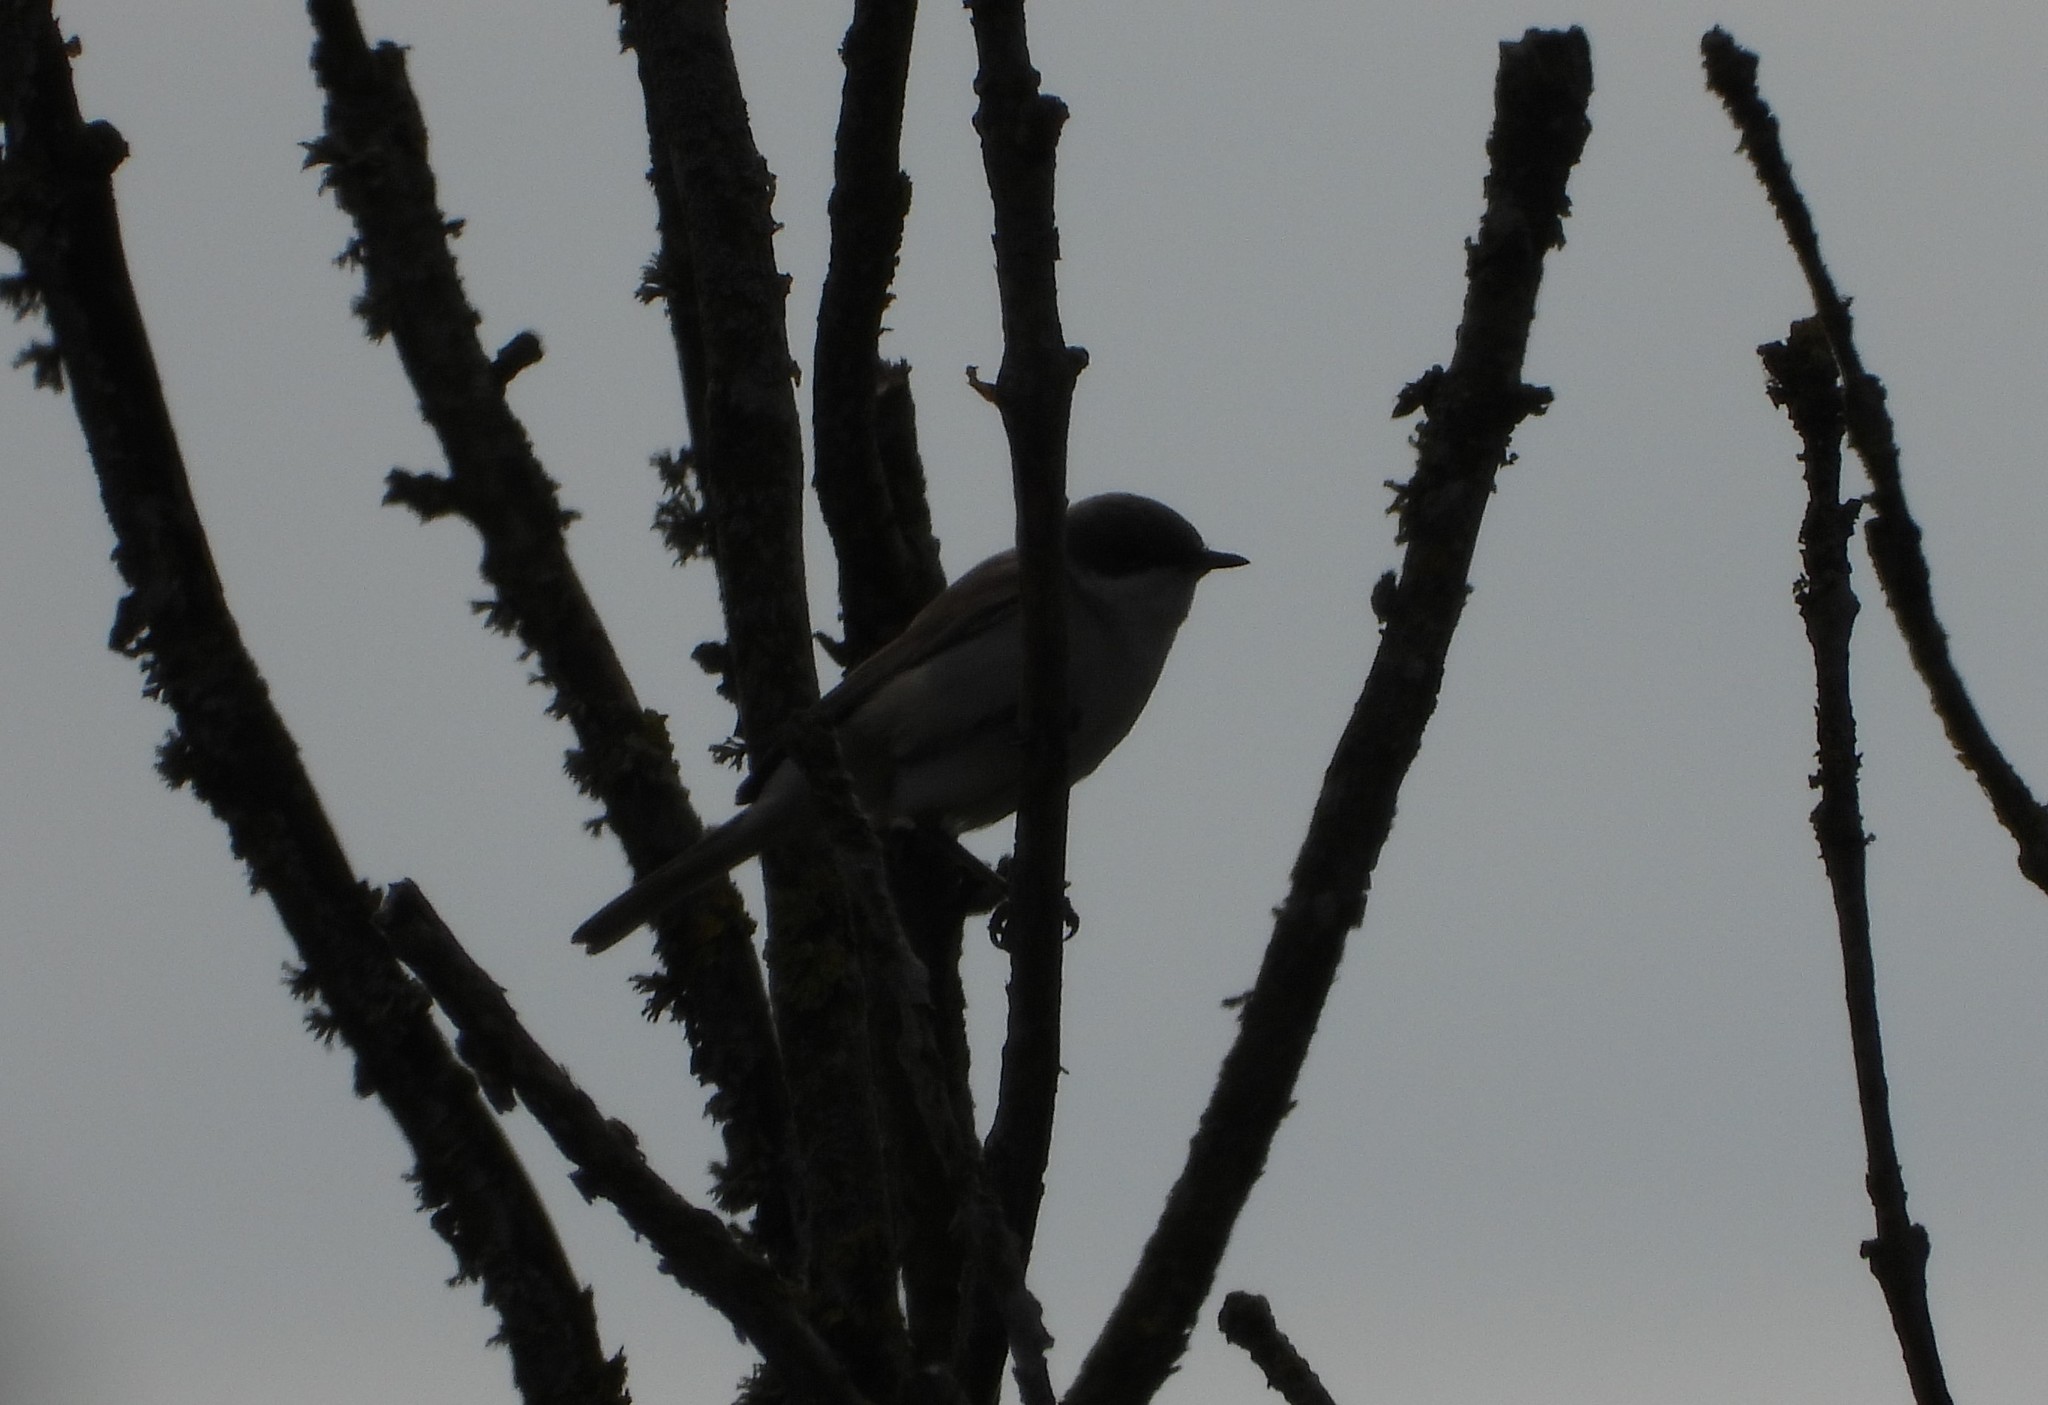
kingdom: Animalia
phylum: Chordata
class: Aves
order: Passeriformes
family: Sylviidae
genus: Sylvia
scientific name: Sylvia curruca
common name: Lesser whitethroat
